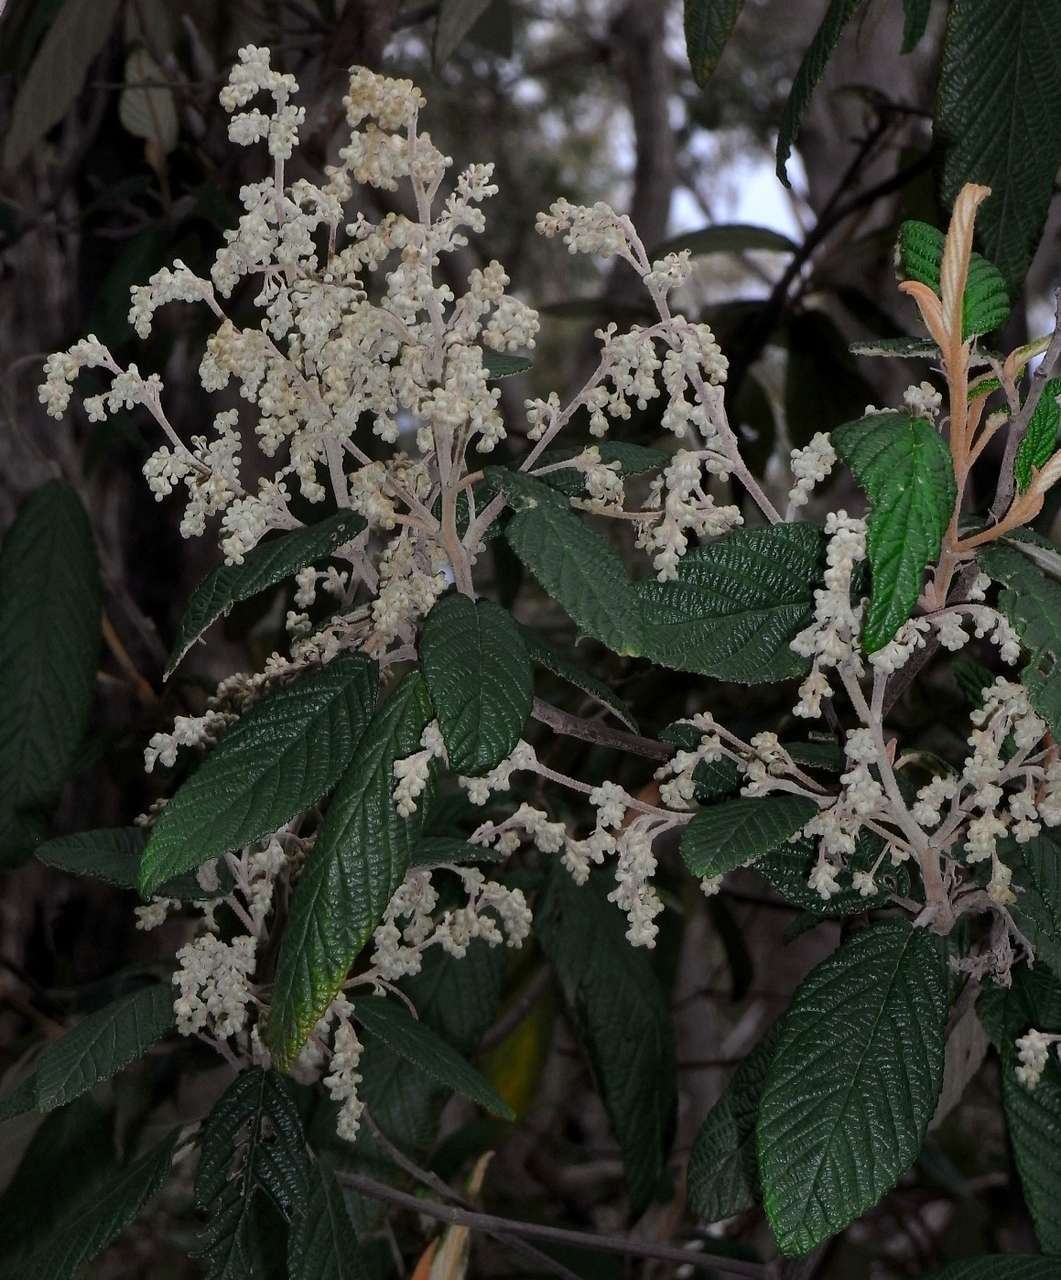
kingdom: Plantae
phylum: Tracheophyta
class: Magnoliopsida
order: Rosales
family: Rhamnaceae
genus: Pomaderris
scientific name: Pomaderris aspera
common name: Hazel pomaderris
